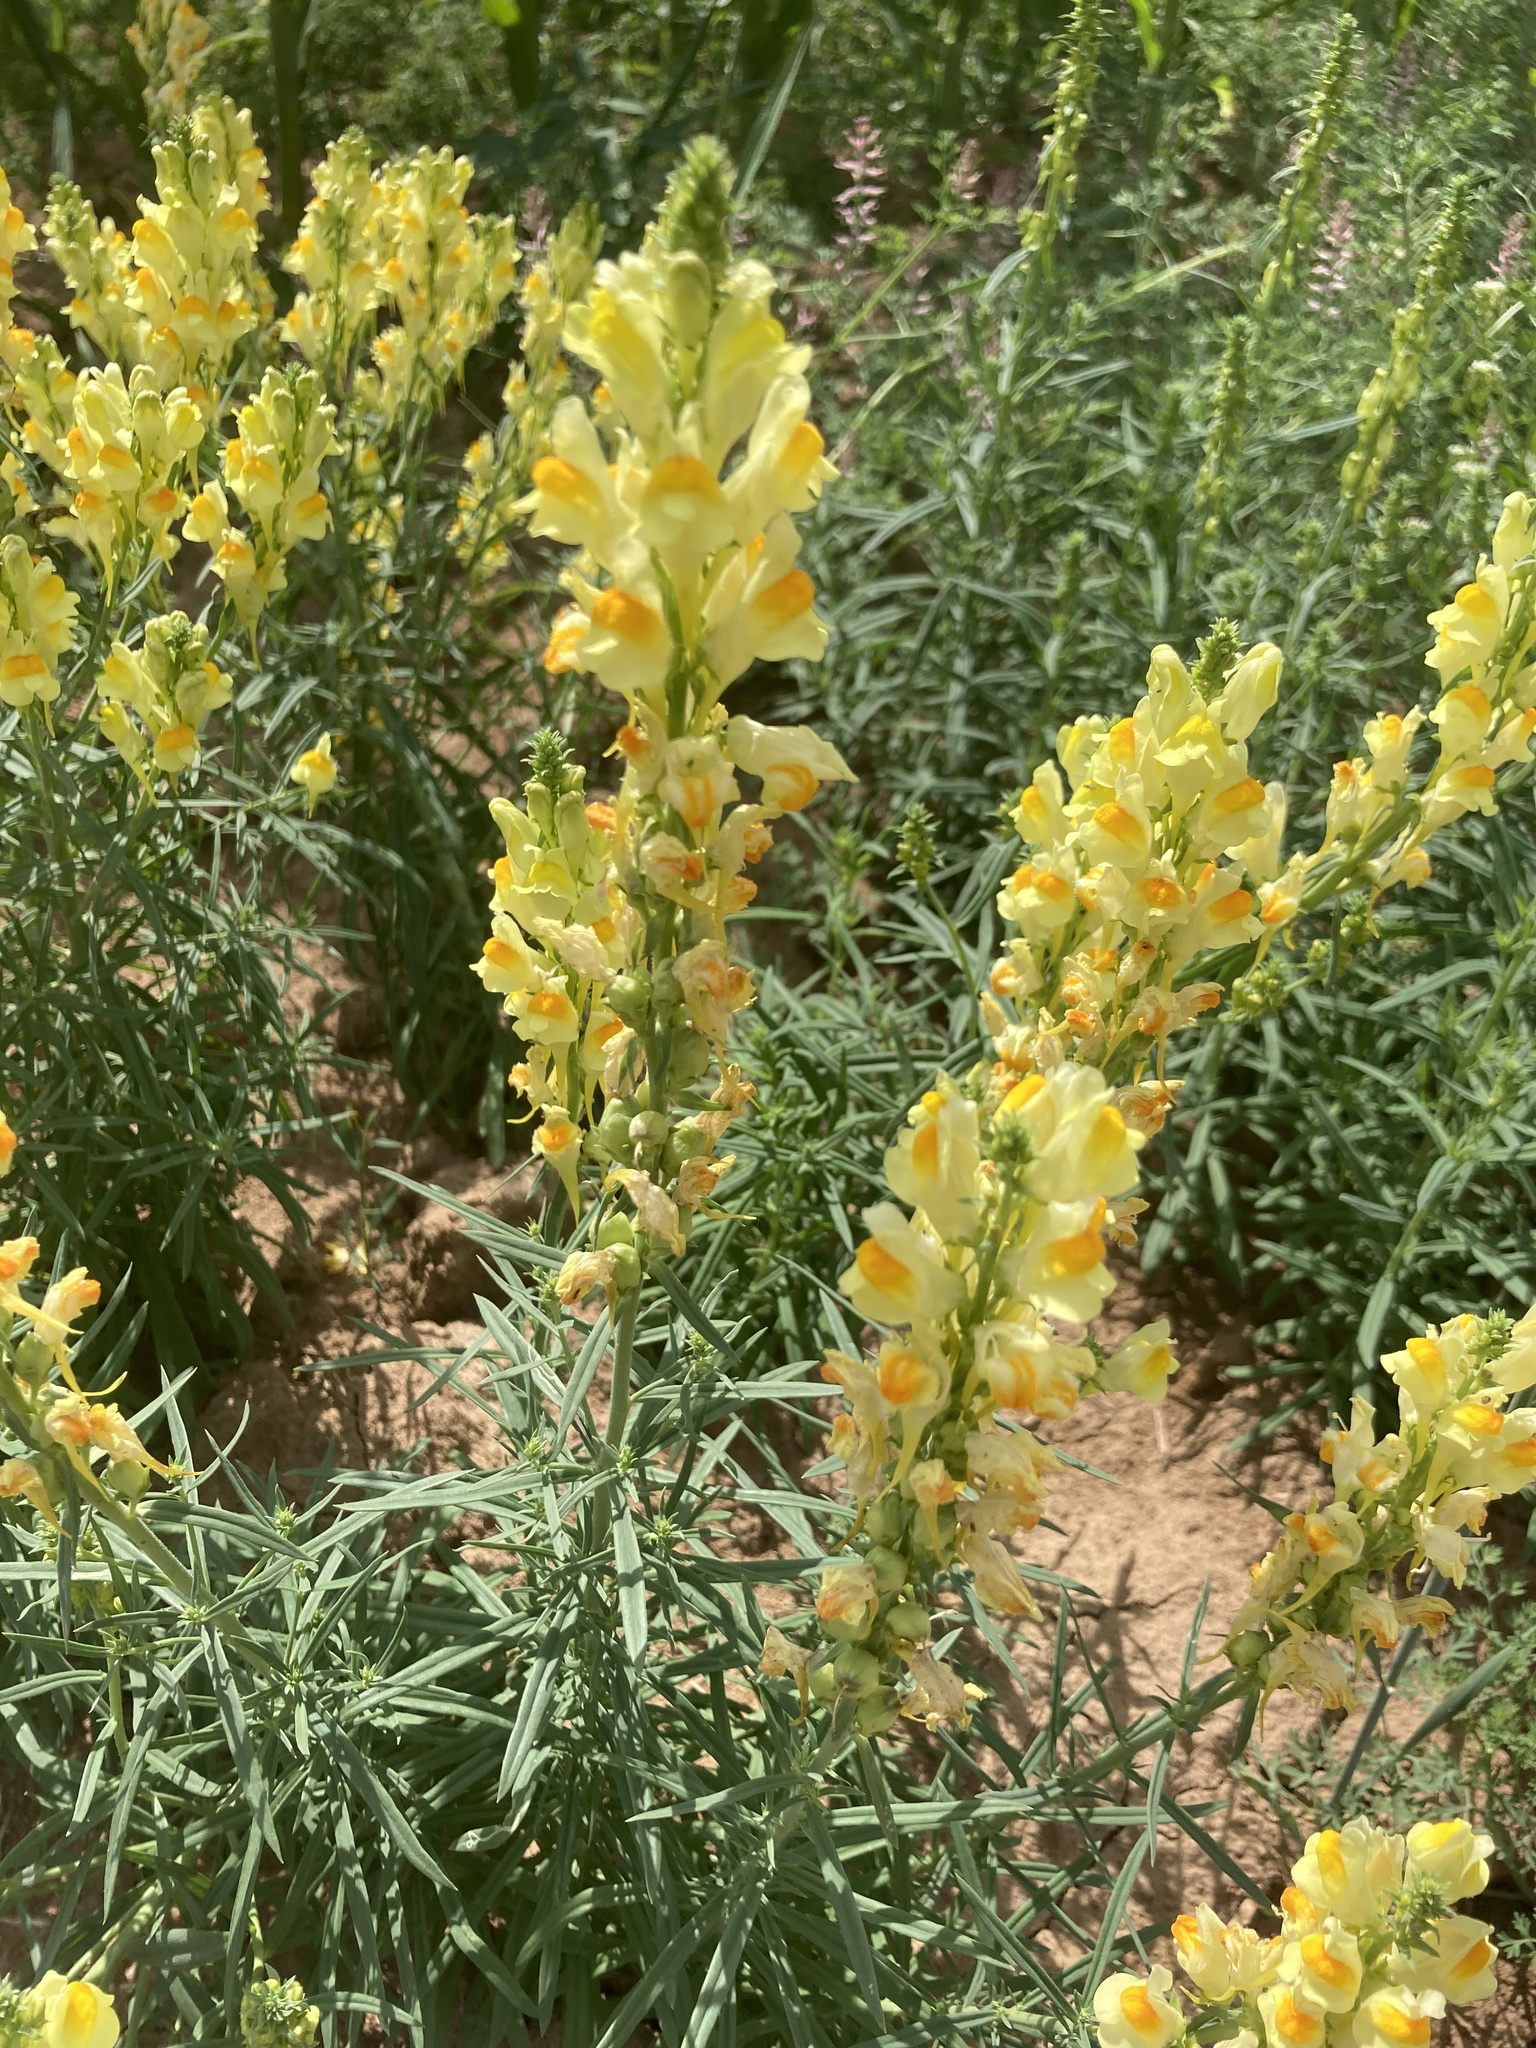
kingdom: Plantae
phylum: Tracheophyta
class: Magnoliopsida
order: Lamiales
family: Plantaginaceae
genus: Linaria
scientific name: Linaria vulgaris
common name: Butter and eggs
